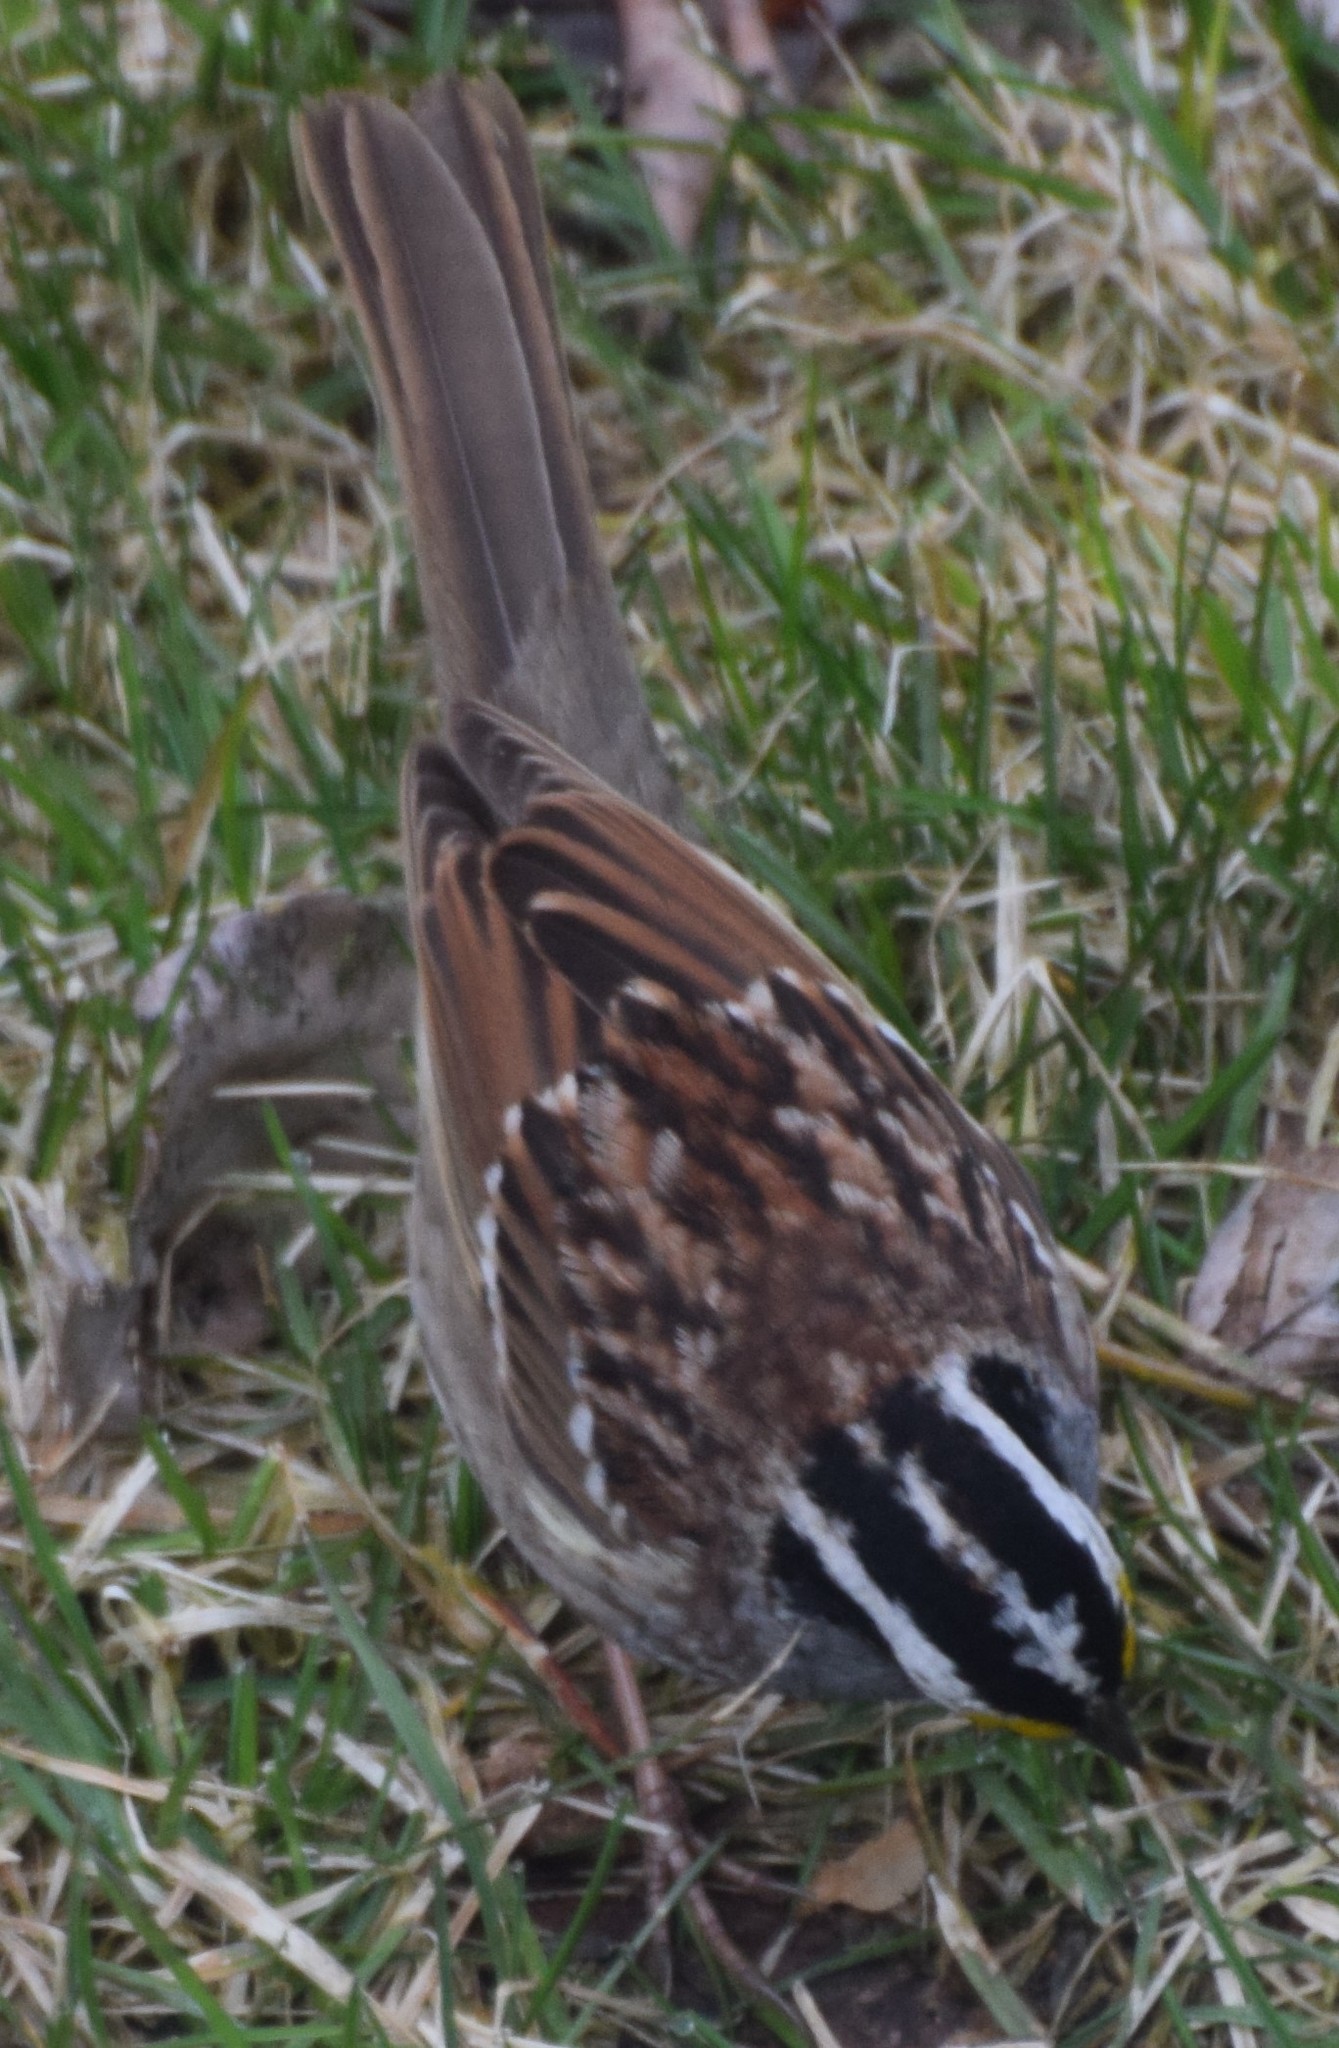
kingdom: Animalia
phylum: Chordata
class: Aves
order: Passeriformes
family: Passerellidae
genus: Zonotrichia
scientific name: Zonotrichia albicollis
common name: White-throated sparrow
